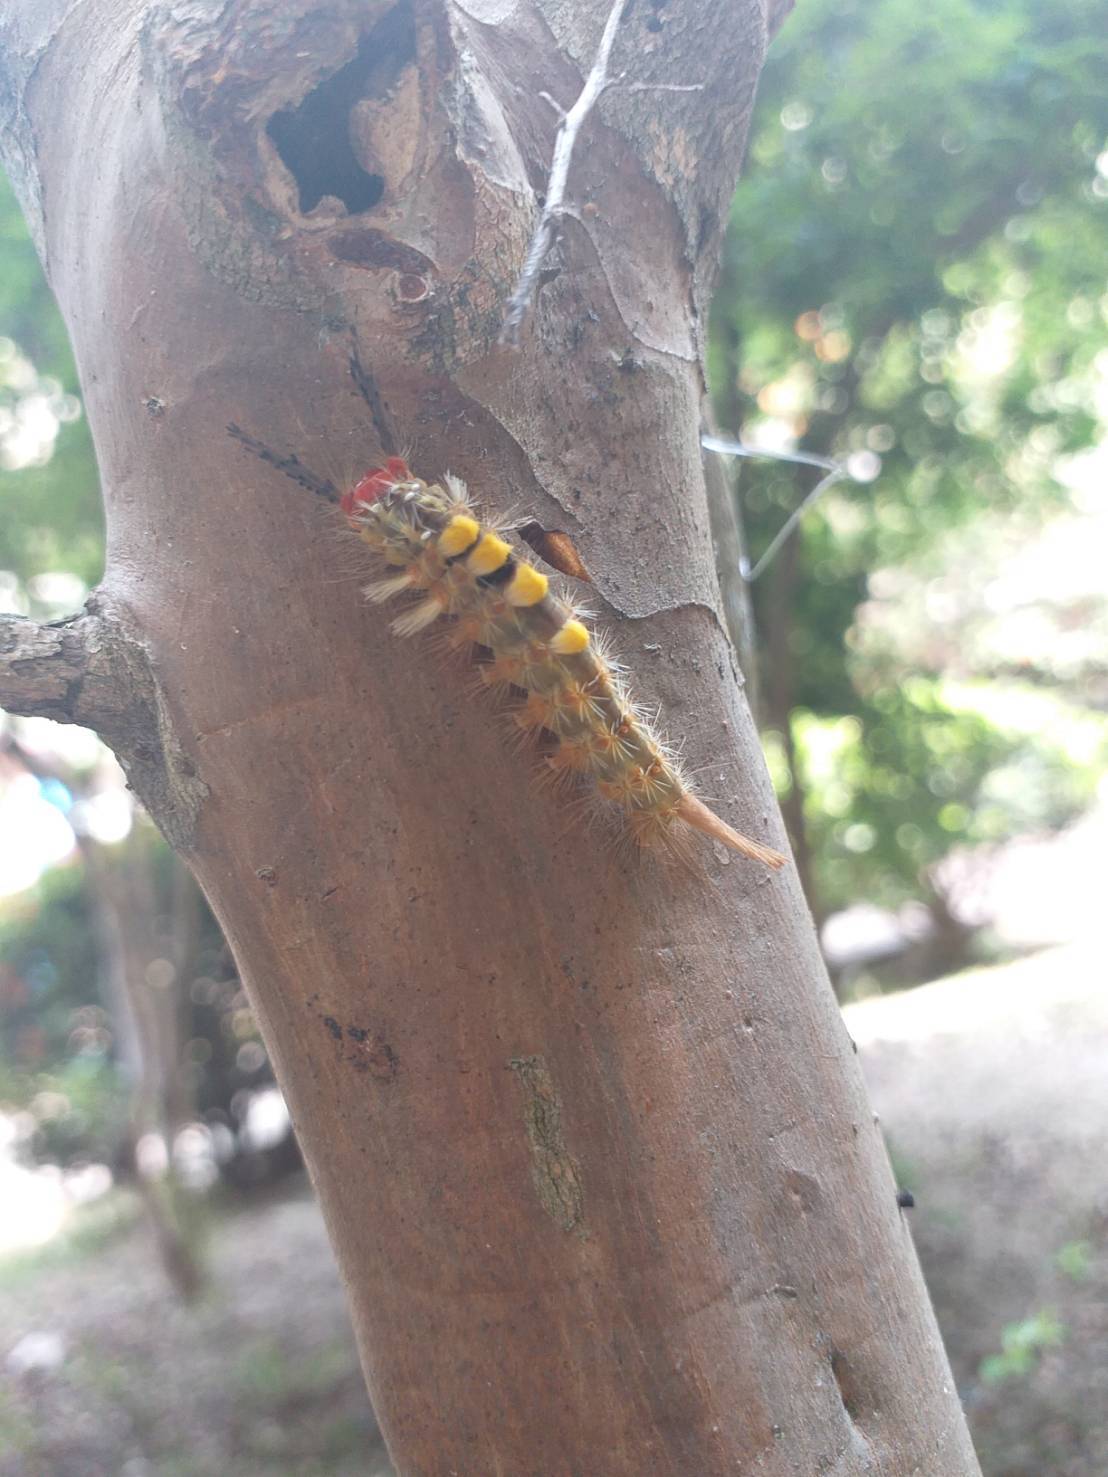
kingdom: Animalia
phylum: Arthropoda
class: Insecta
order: Lepidoptera
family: Erebidae
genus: Orgyia
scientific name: Orgyia postica
